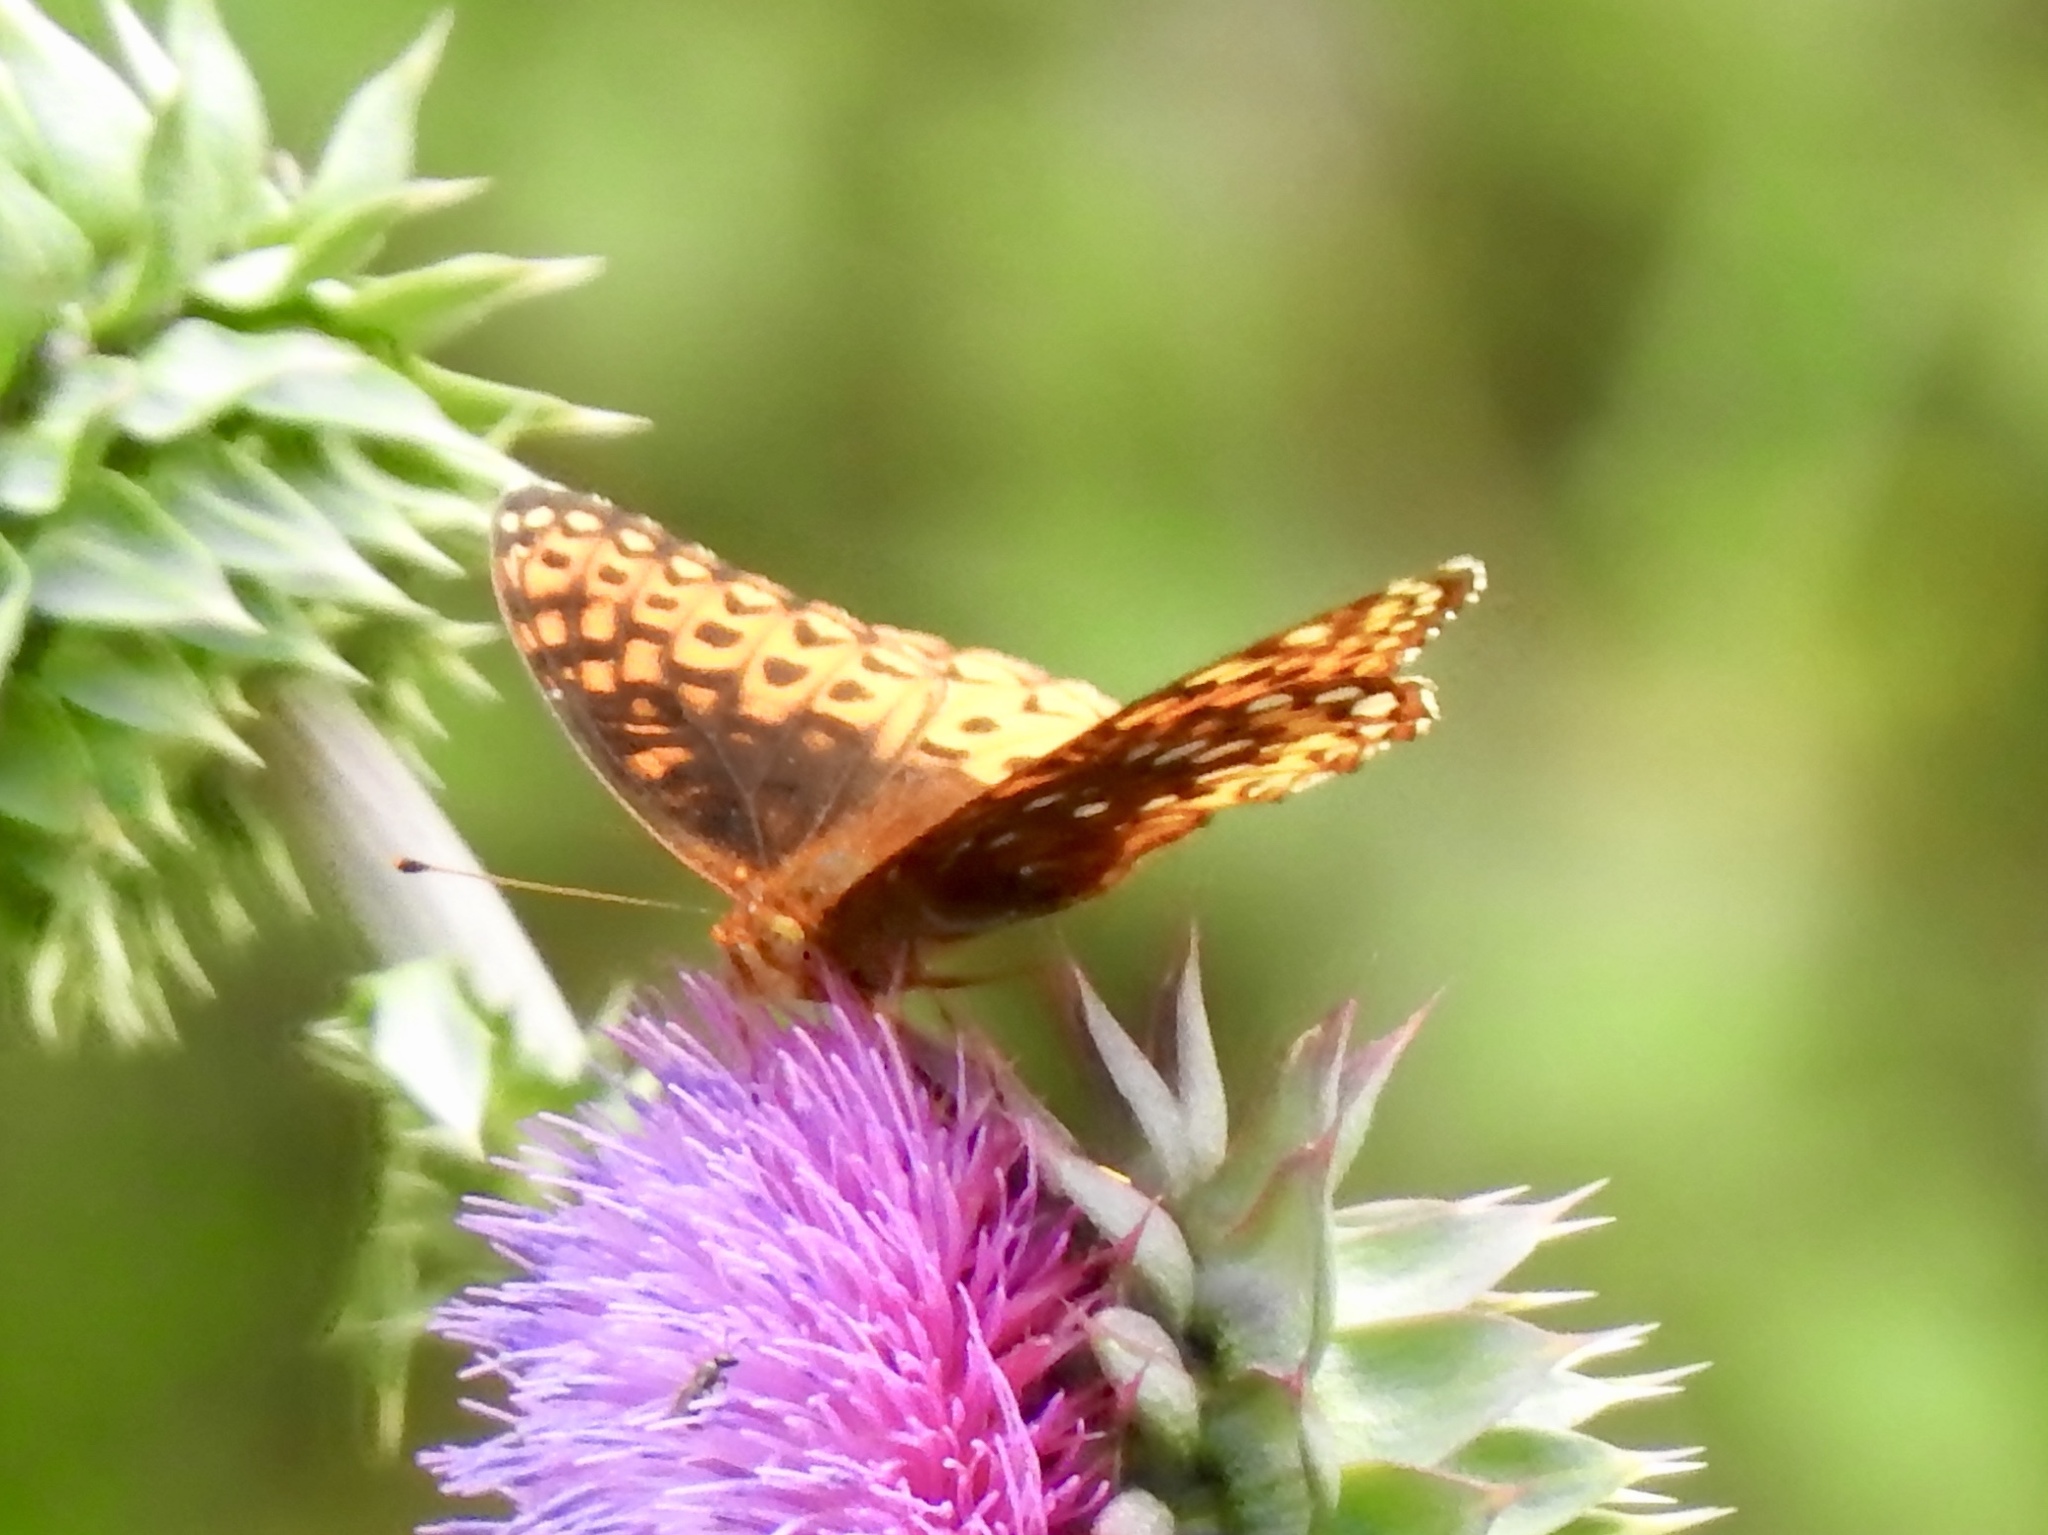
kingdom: Animalia
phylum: Arthropoda
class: Insecta
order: Lepidoptera
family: Nymphalidae
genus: Speyeria
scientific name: Speyeria atlantis
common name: Atlantis fritillary
